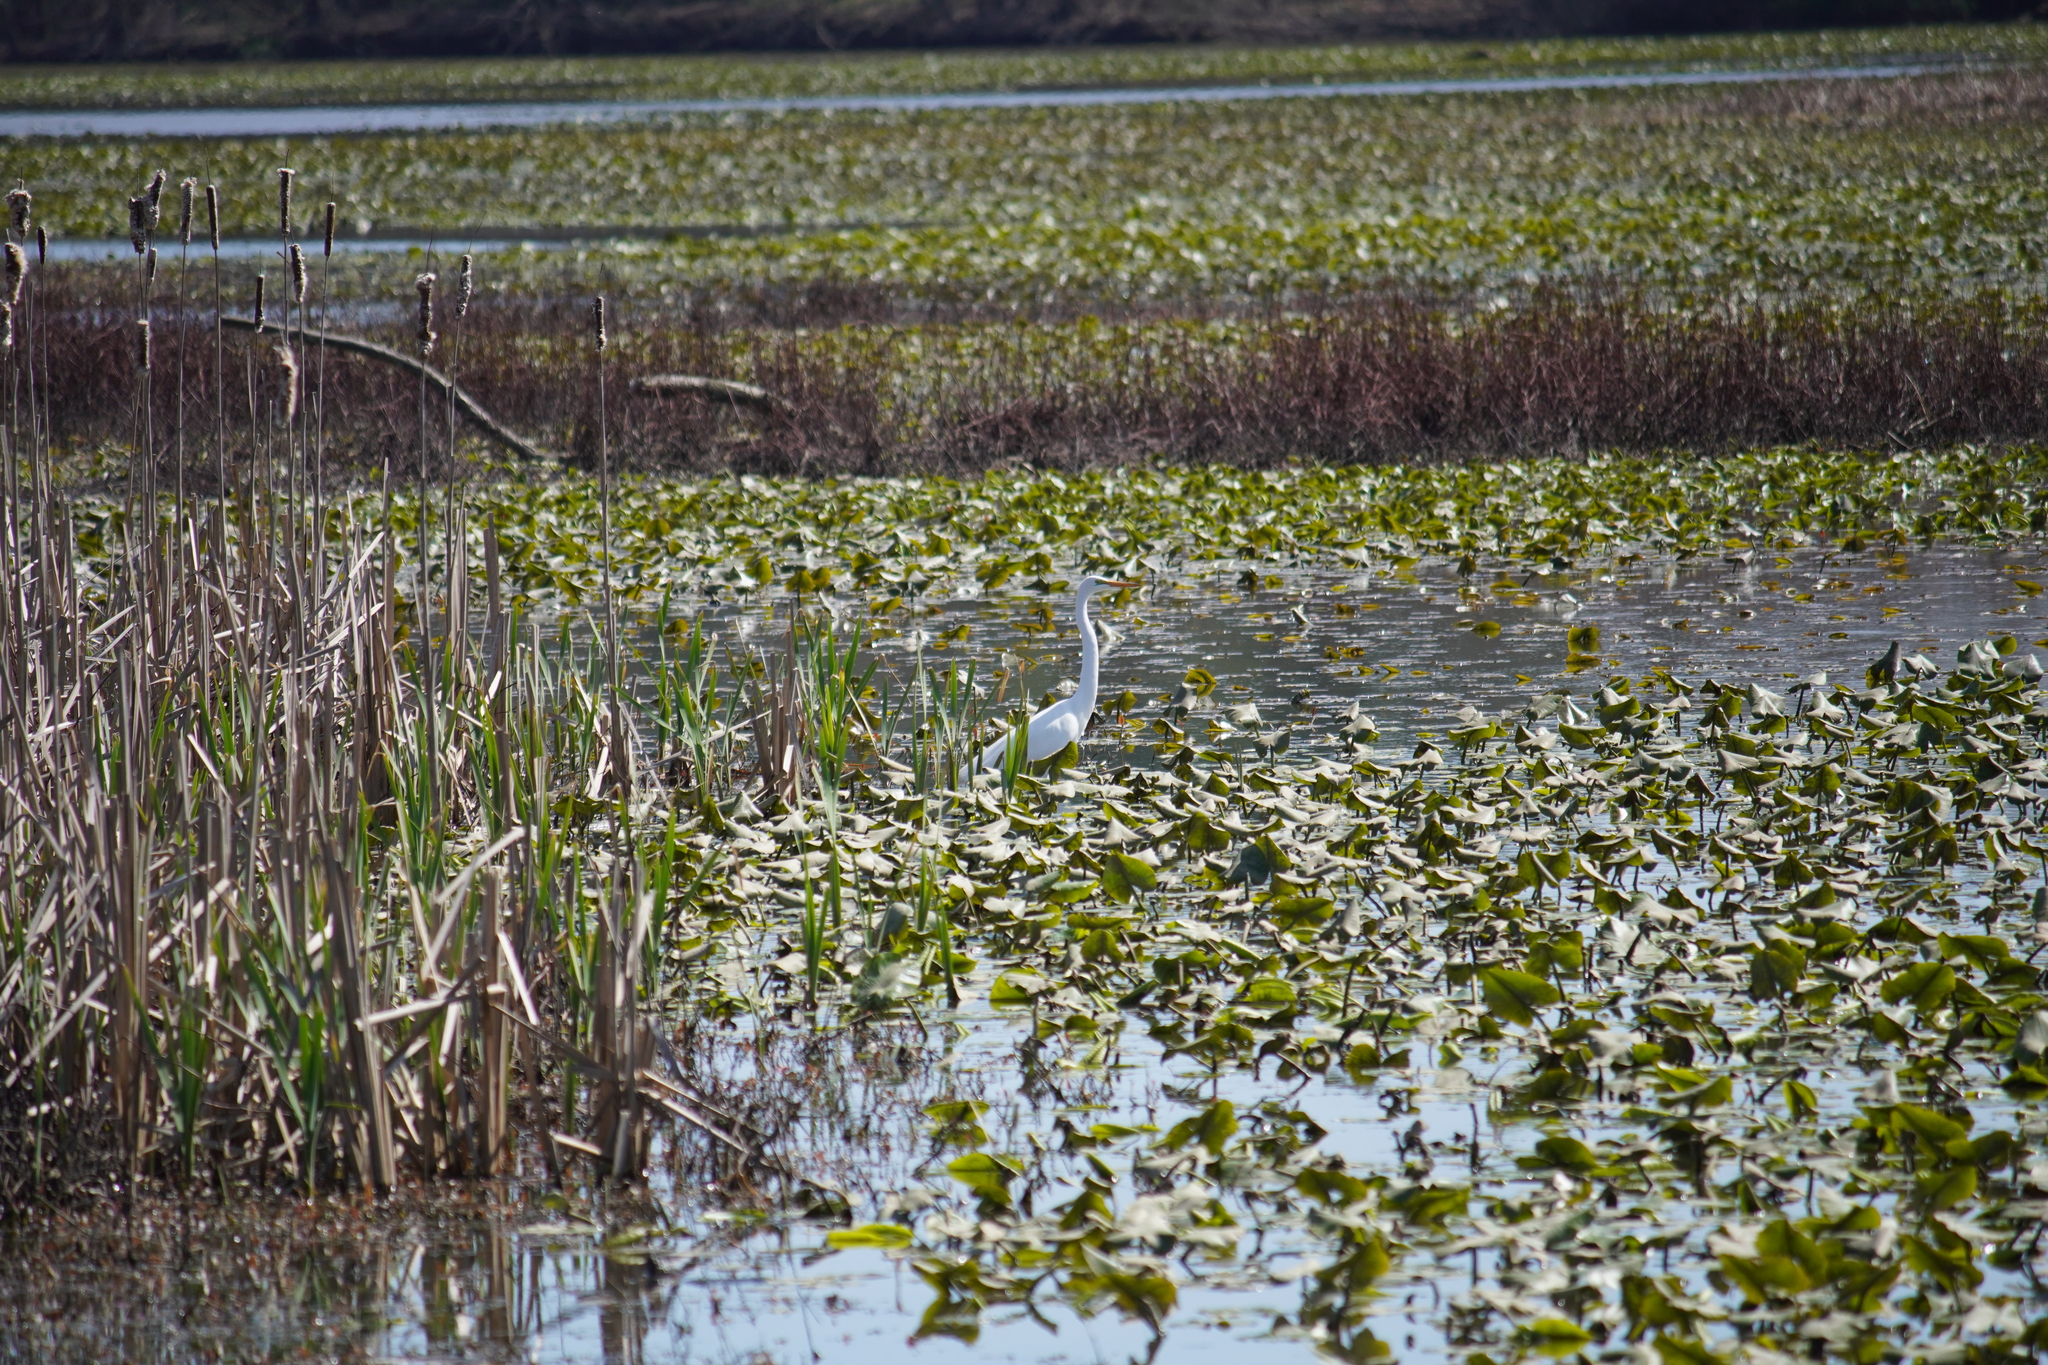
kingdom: Animalia
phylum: Chordata
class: Aves
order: Pelecaniformes
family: Ardeidae
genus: Ardea
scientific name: Ardea alba
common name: Great egret
